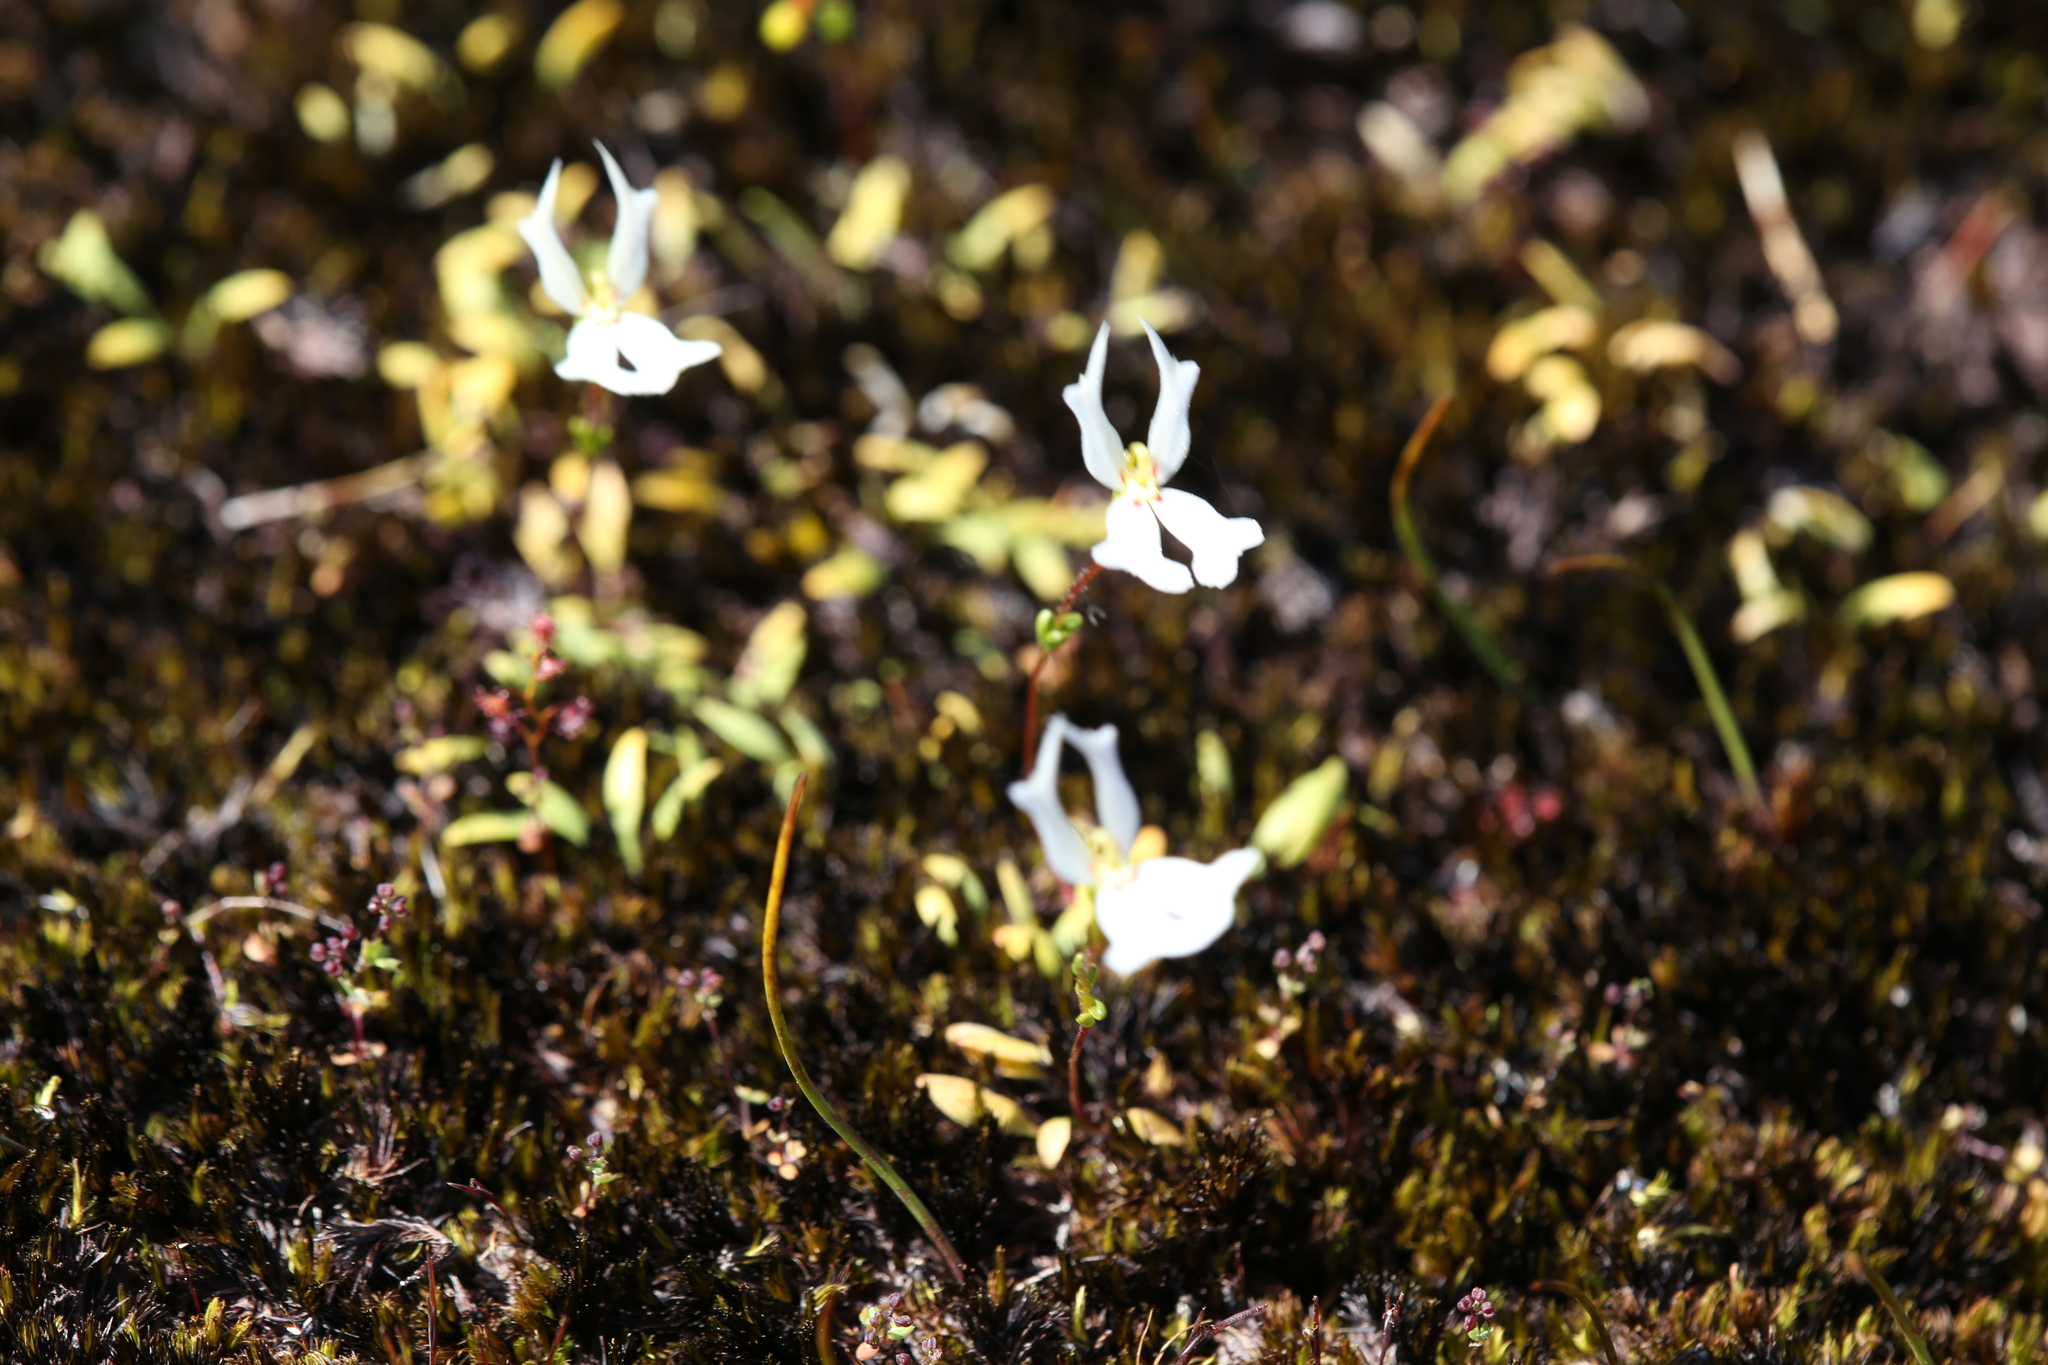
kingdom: Plantae
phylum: Tracheophyta
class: Magnoliopsida
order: Asterales
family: Stylidiaceae
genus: Stylidium
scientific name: Stylidium emarginatum
